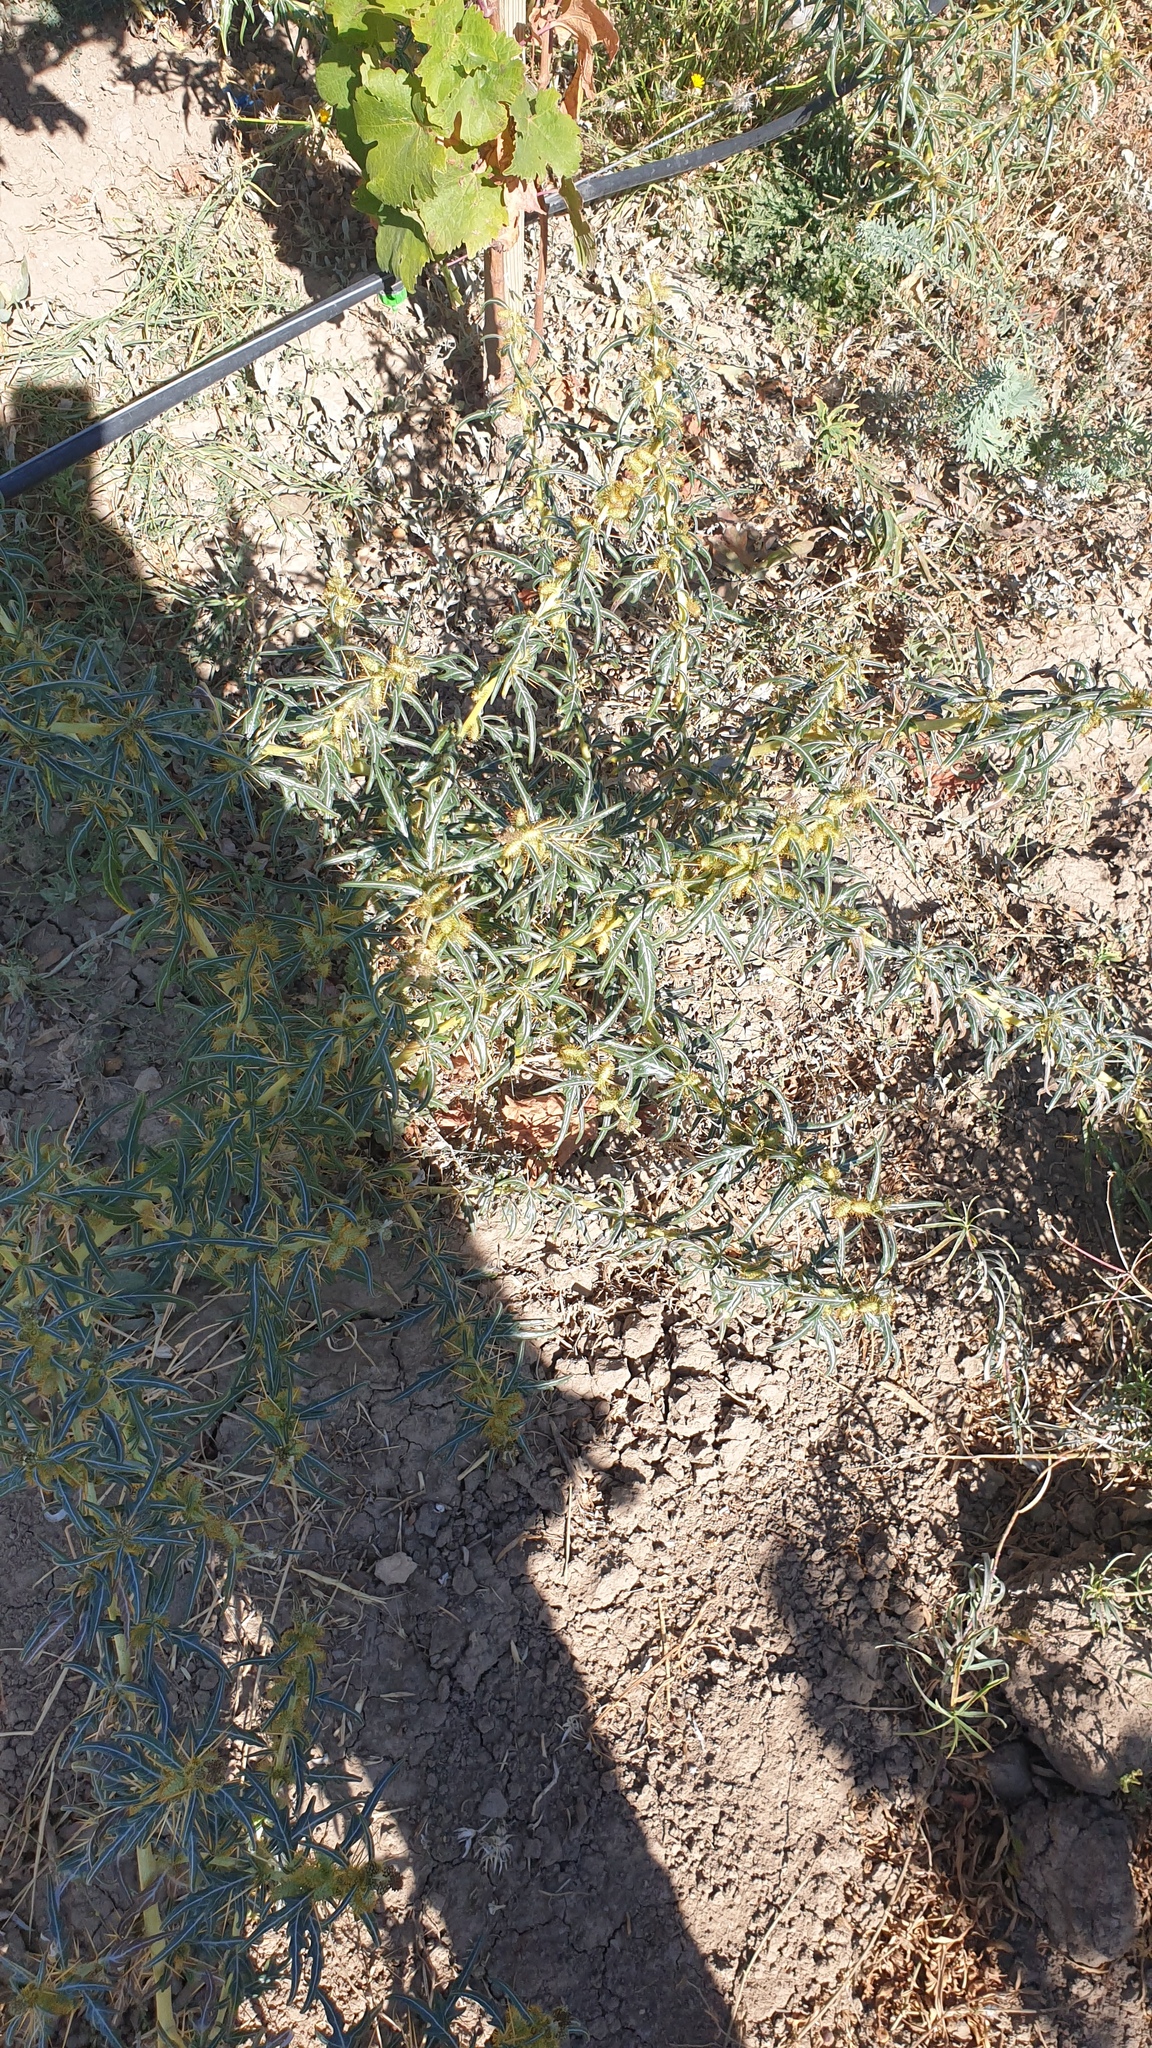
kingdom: Plantae
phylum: Tracheophyta
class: Magnoliopsida
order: Asterales
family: Asteraceae
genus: Xanthium
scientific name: Xanthium spinosum
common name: Spiny cocklebur
